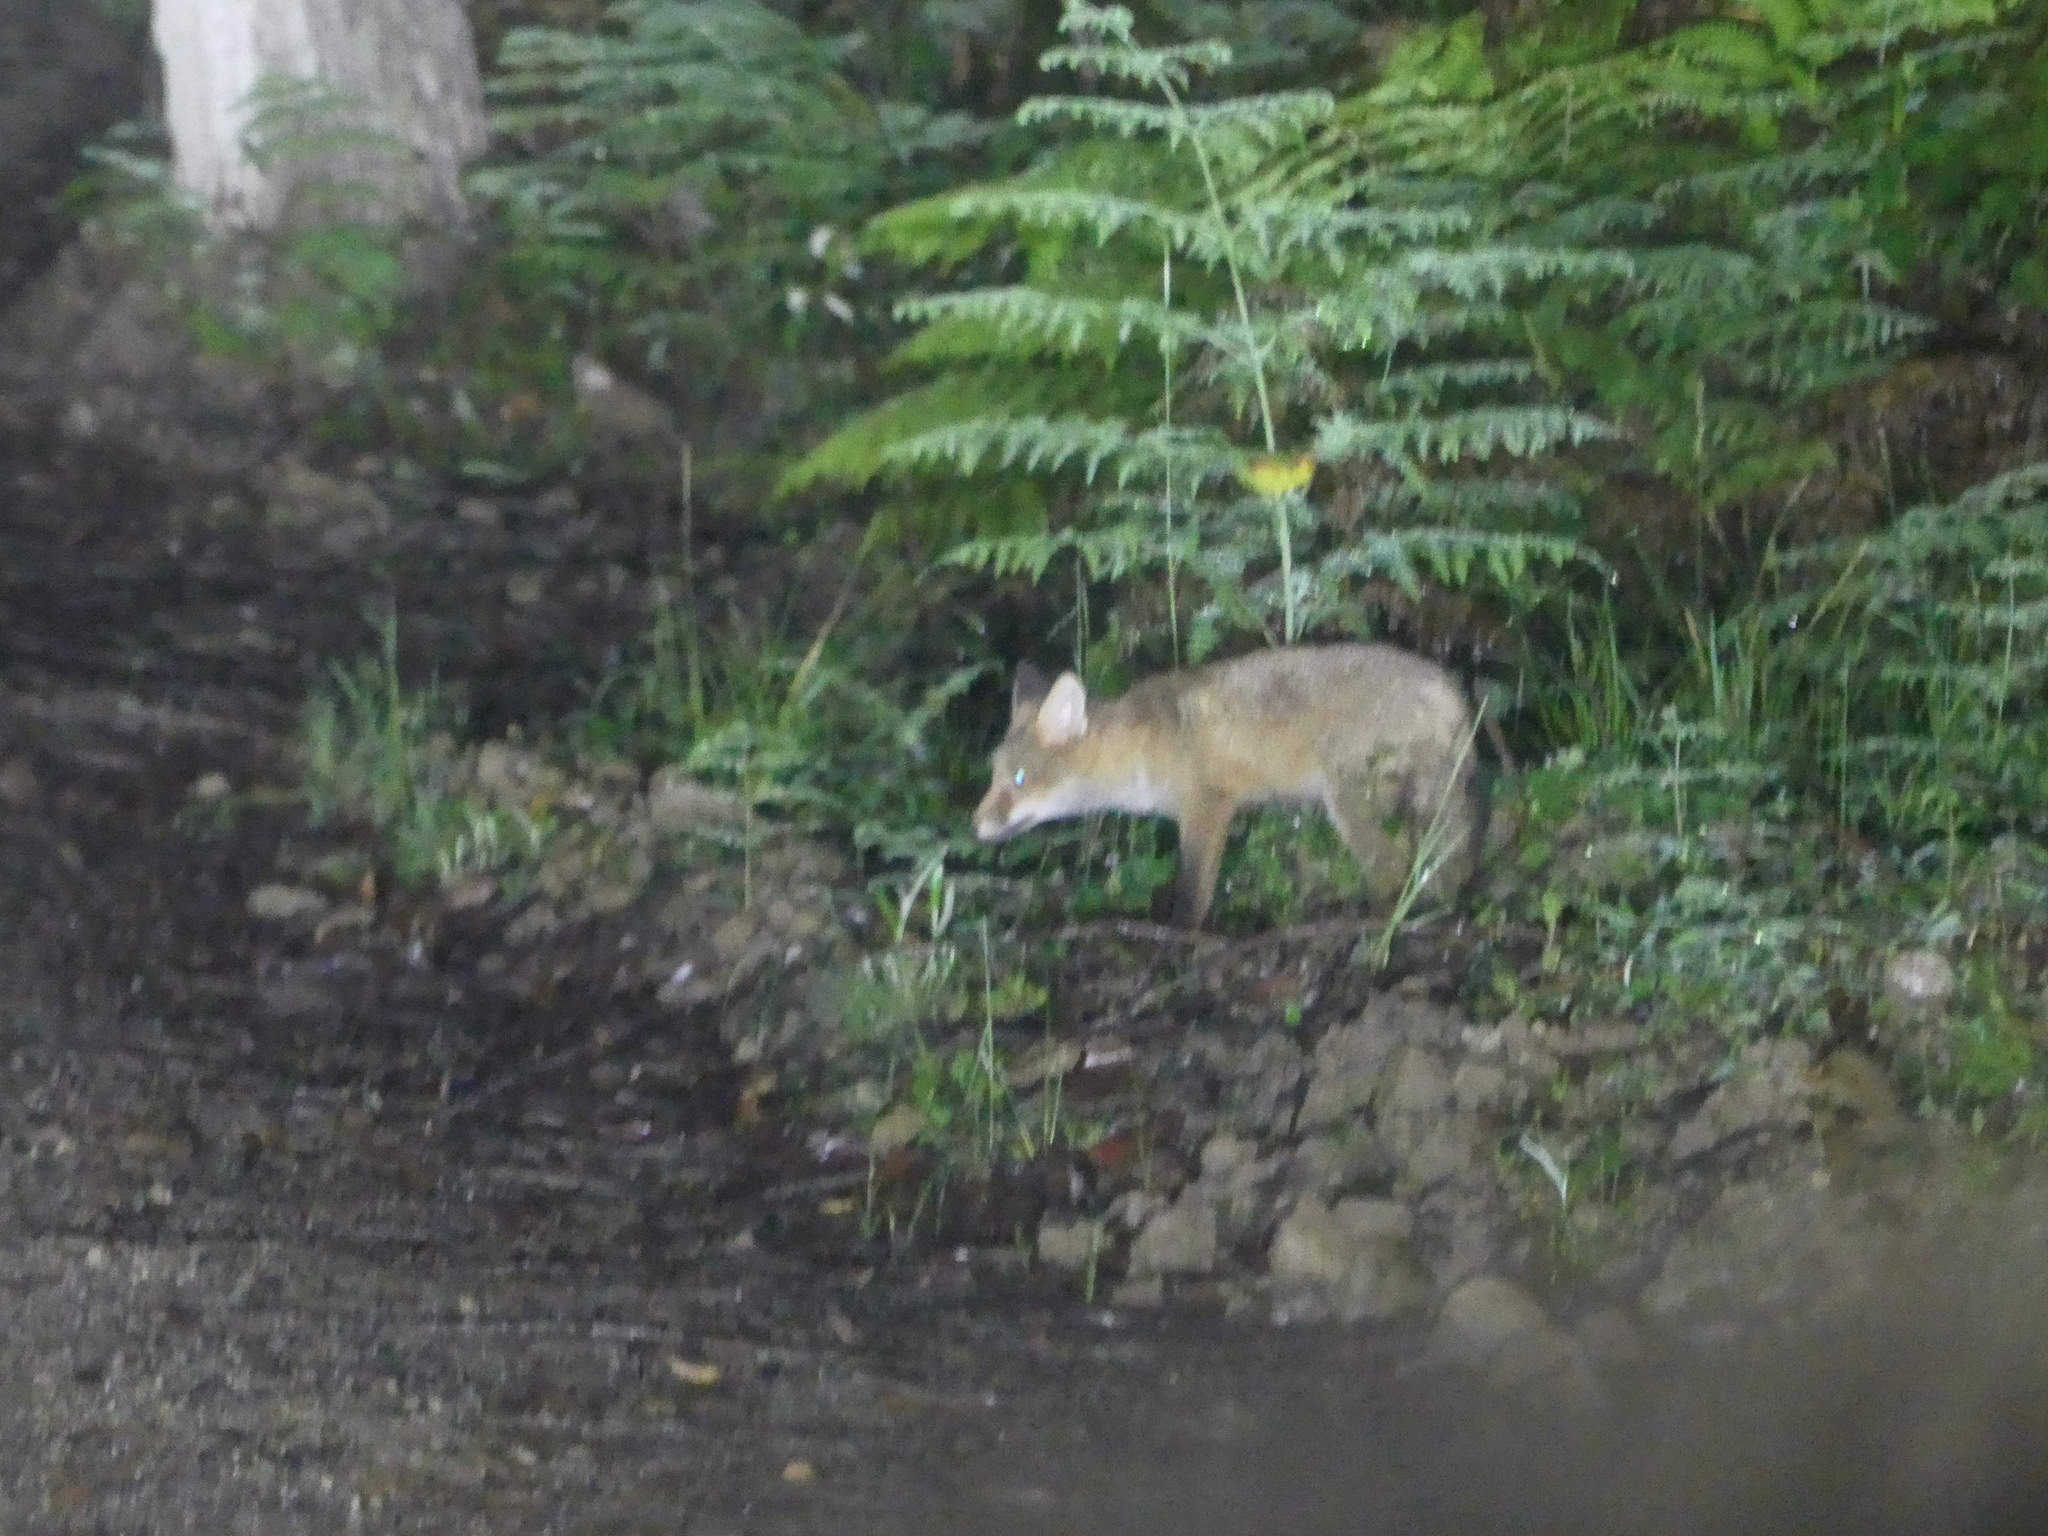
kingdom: Animalia
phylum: Chordata
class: Mammalia
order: Carnivora
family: Canidae
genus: Vulpes
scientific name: Vulpes vulpes
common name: Red fox
